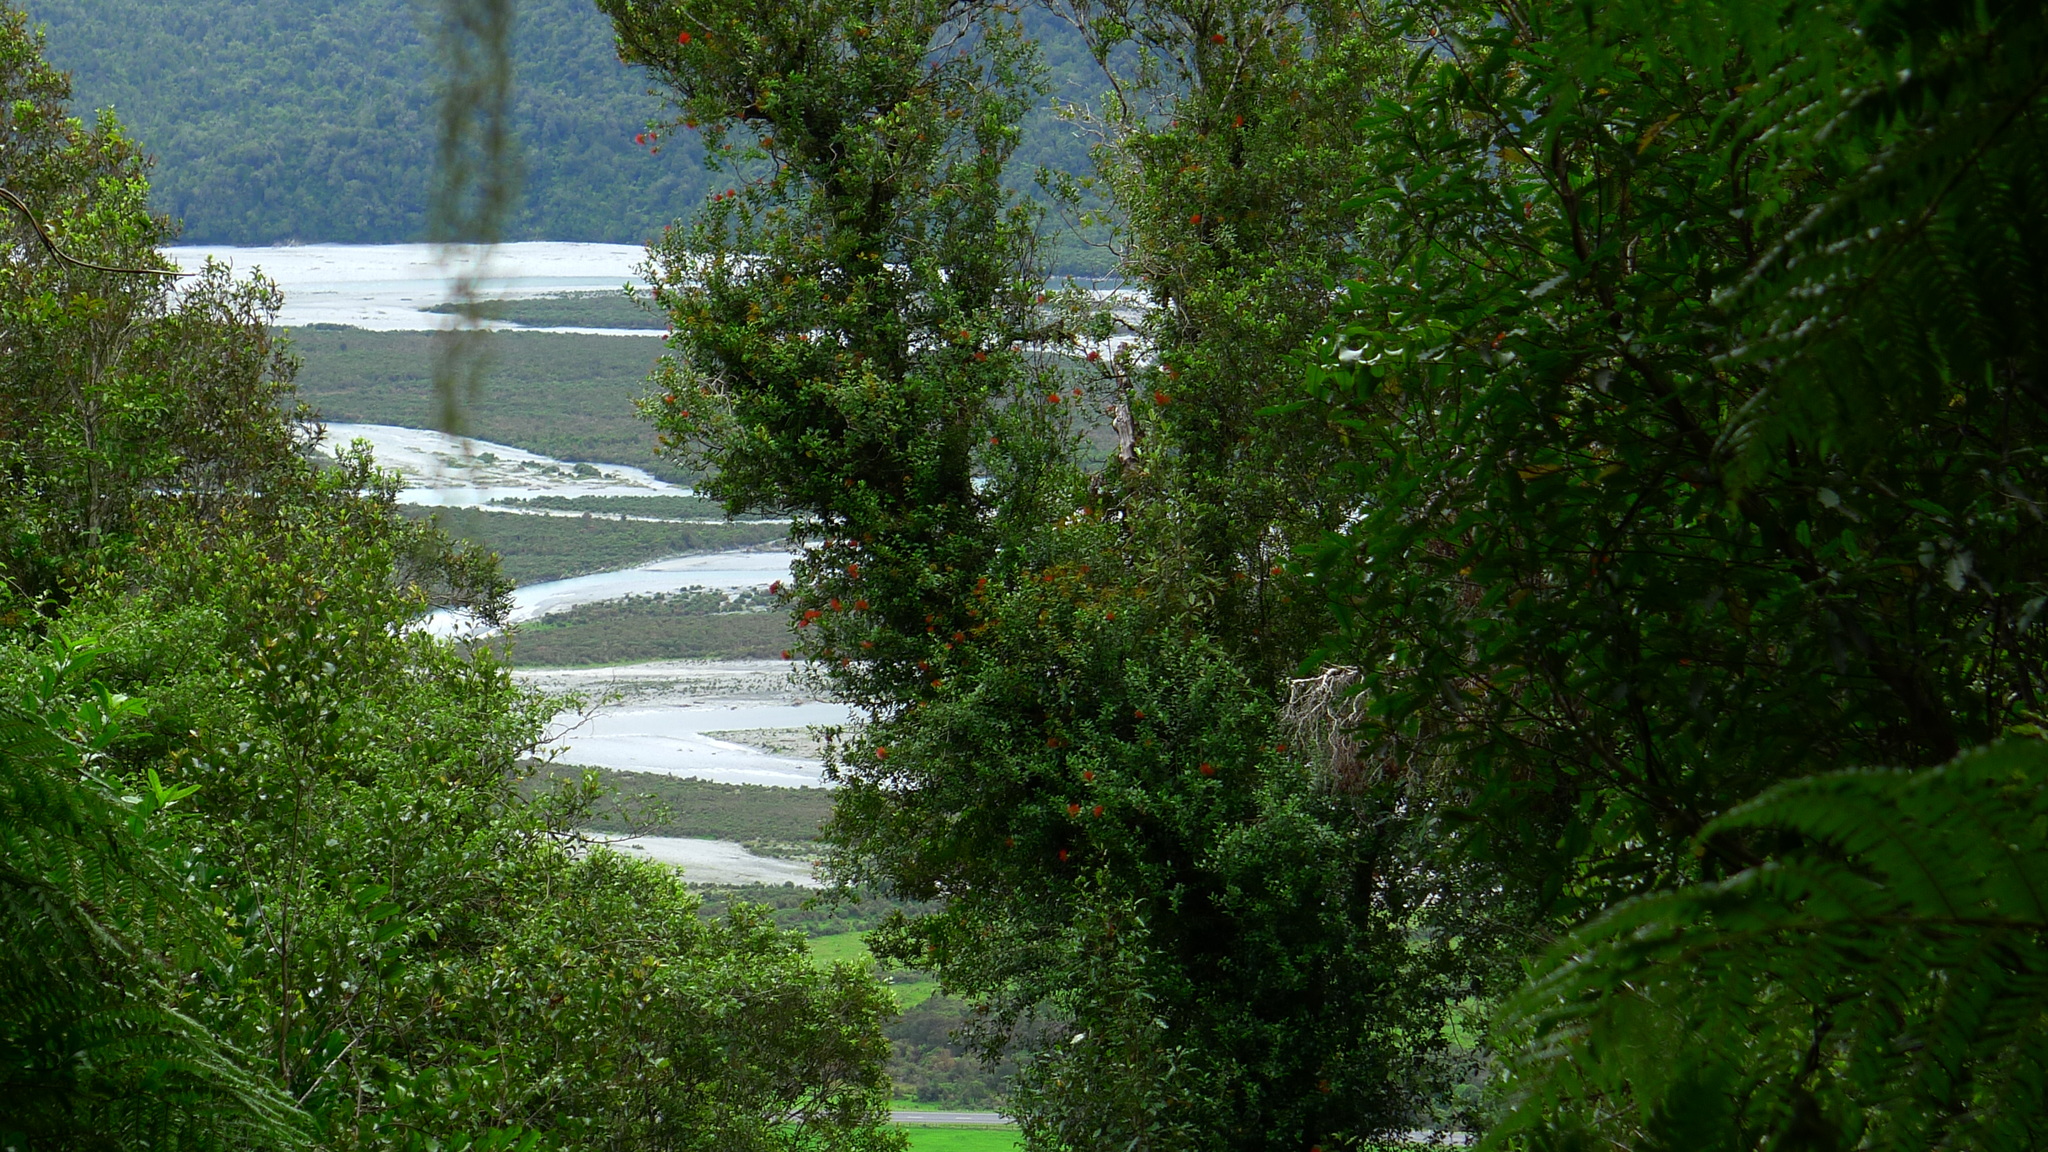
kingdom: Plantae
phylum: Tracheophyta
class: Magnoliopsida
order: Myrtales
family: Myrtaceae
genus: Metrosideros
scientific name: Metrosideros fulgens
